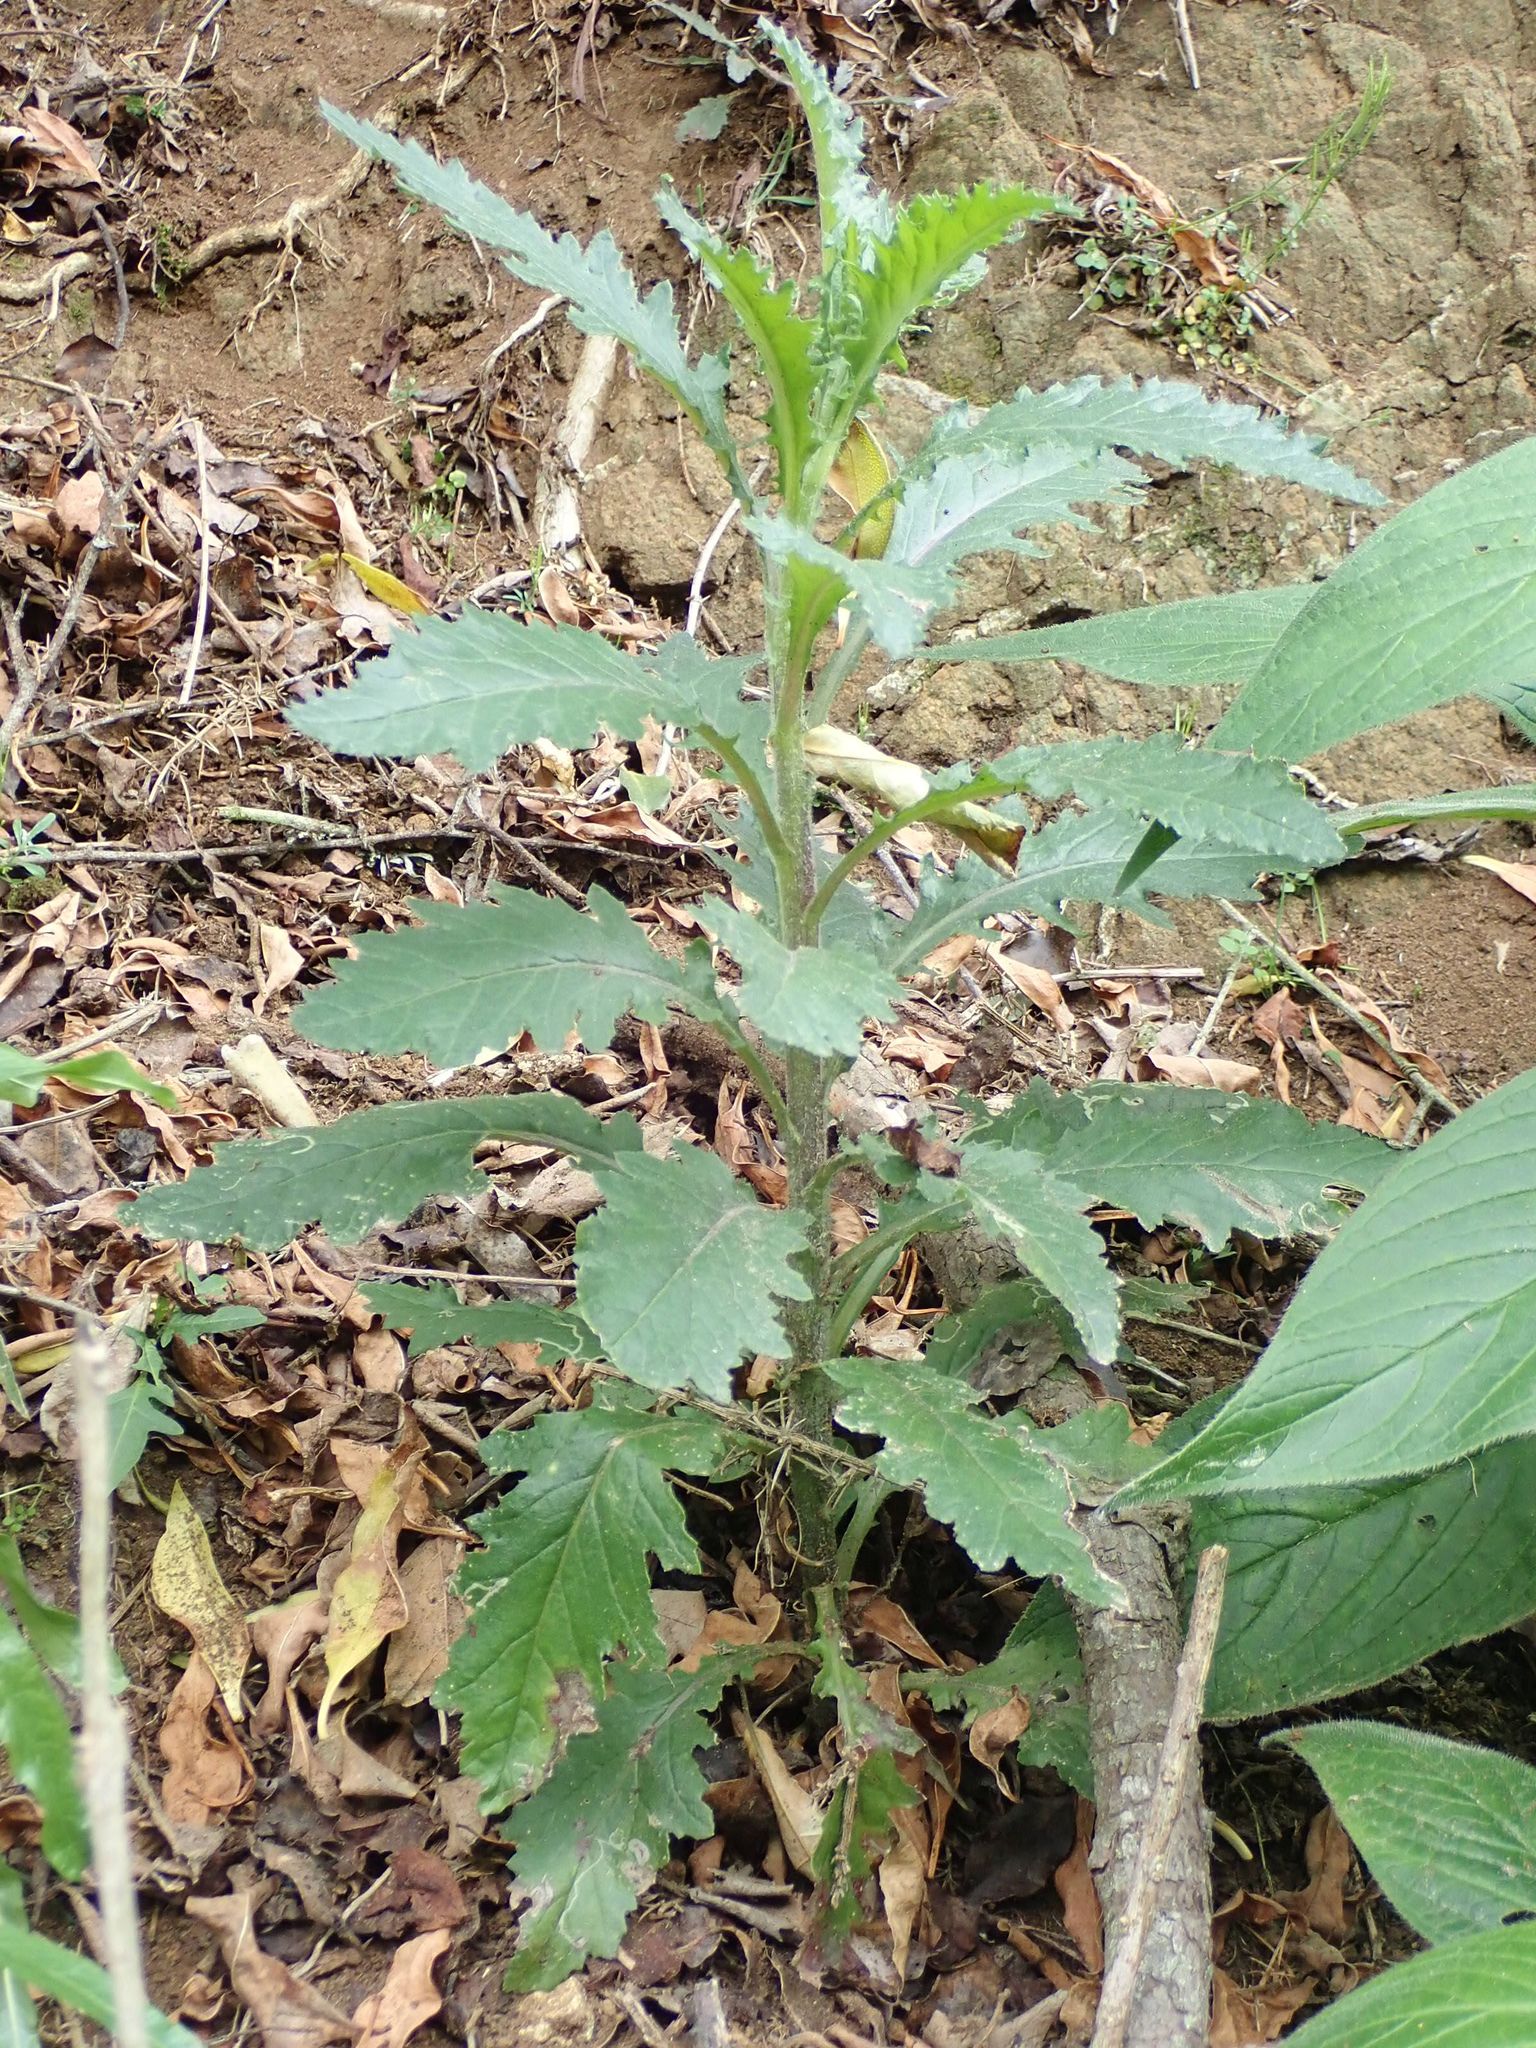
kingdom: Plantae
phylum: Tracheophyta
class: Magnoliopsida
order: Asterales
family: Asteraceae
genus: Senecio
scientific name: Senecio glomeratus
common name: Cutleaf burnweed
